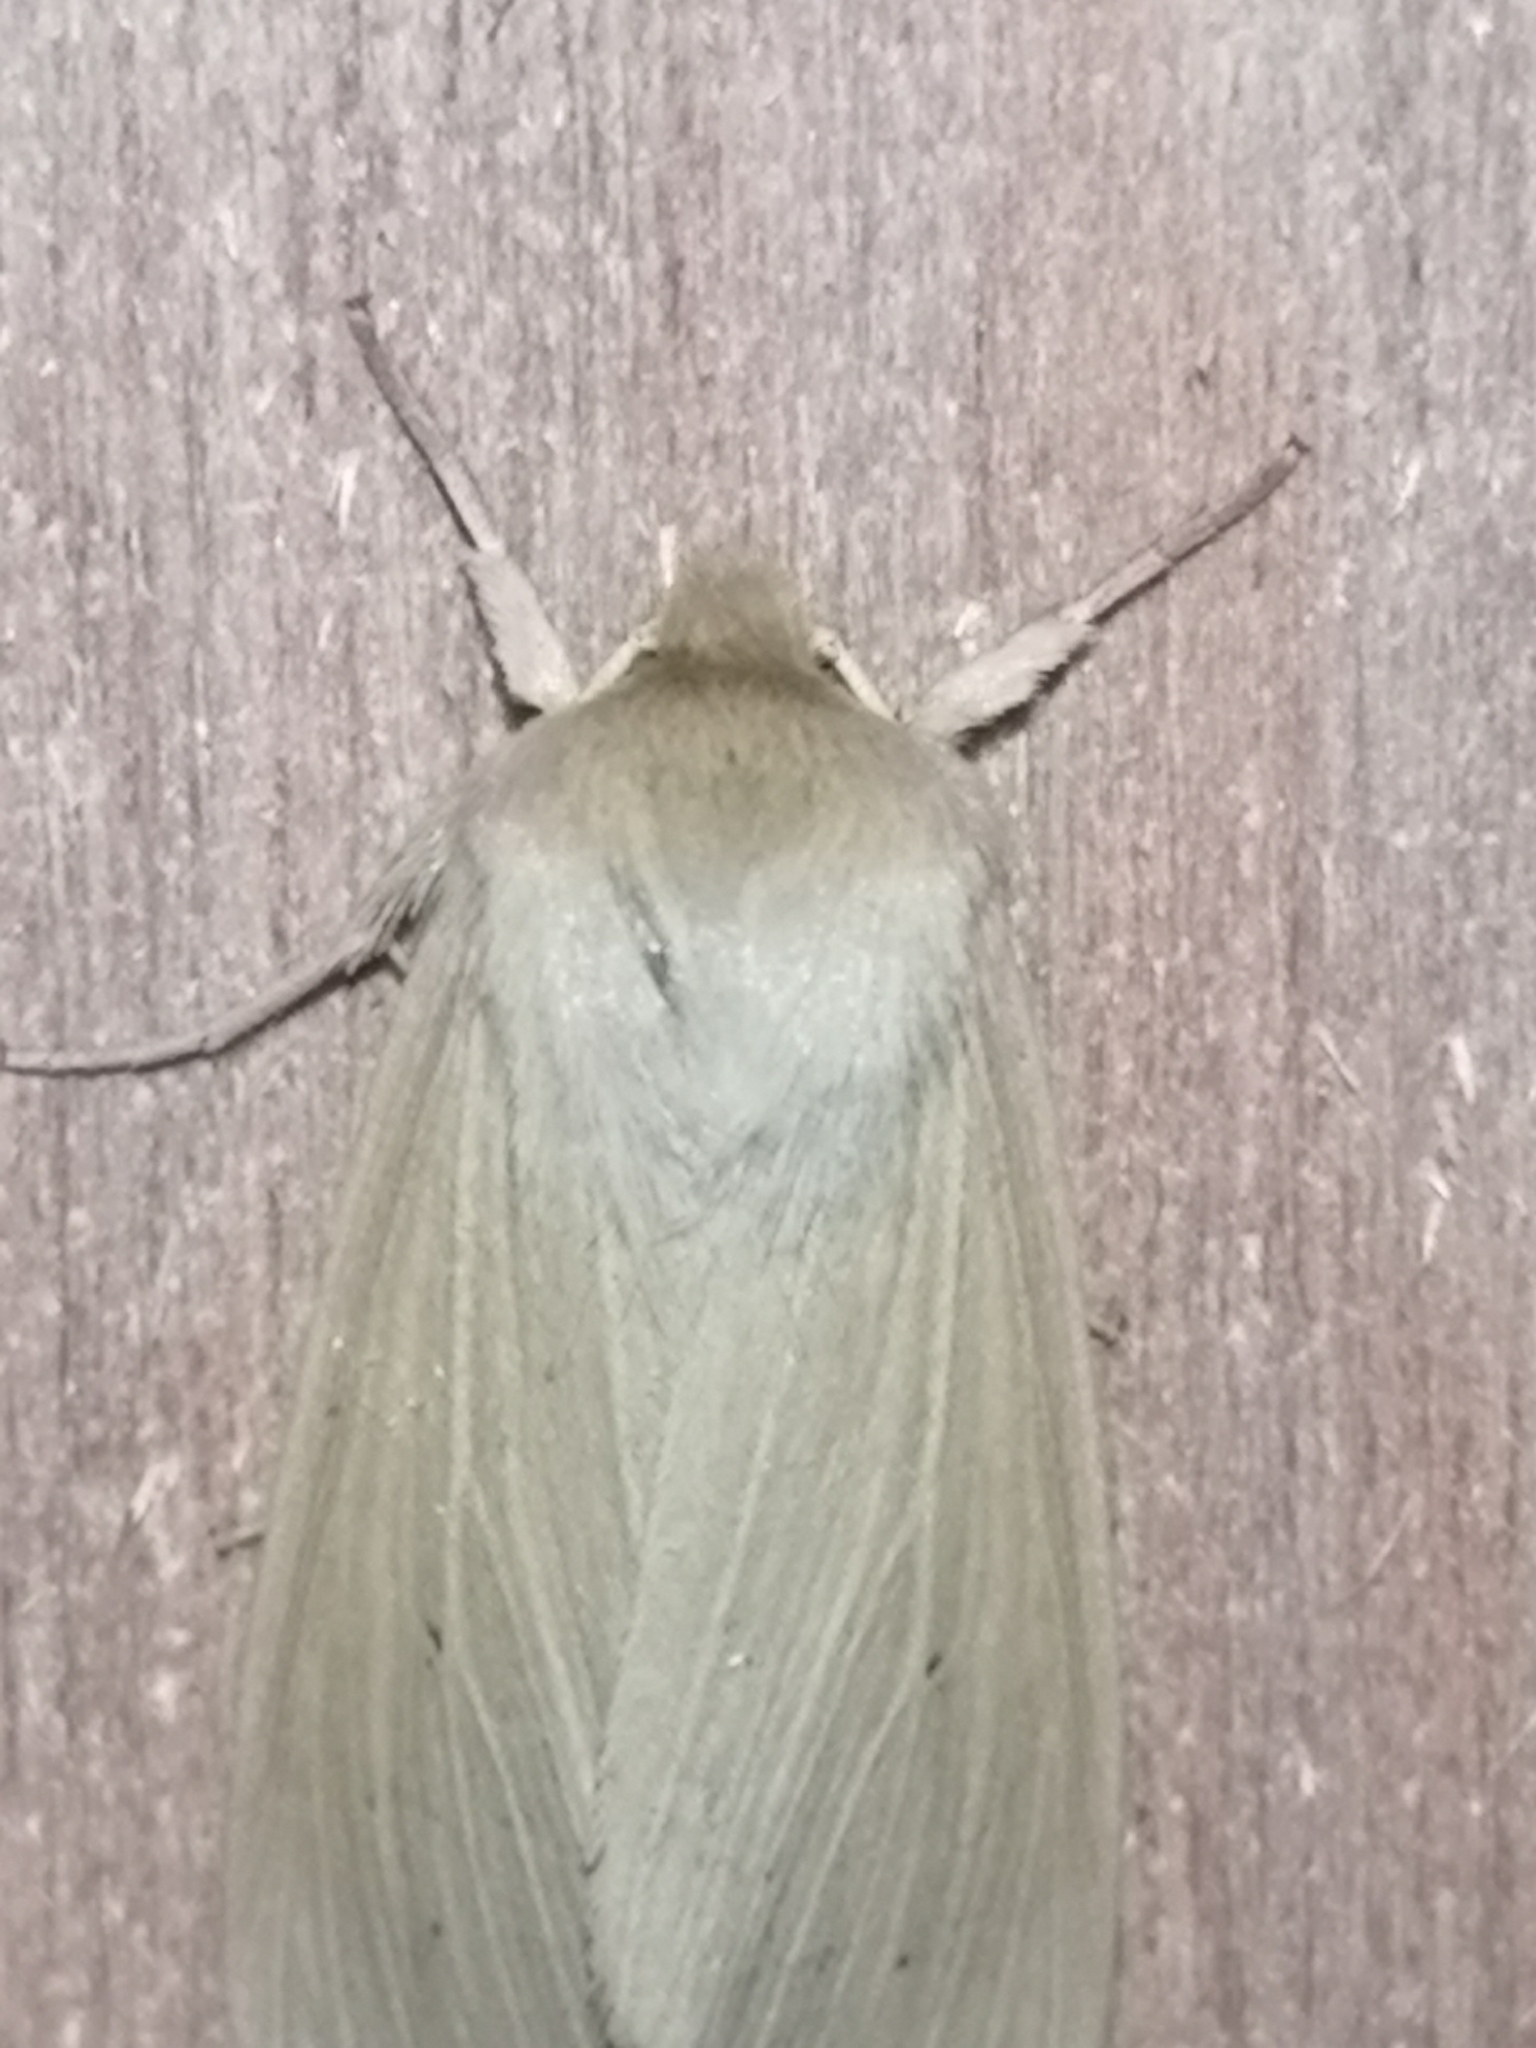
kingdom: Animalia
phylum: Arthropoda
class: Insecta
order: Lepidoptera
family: Noctuidae
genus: Mythimna
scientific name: Mythimna pallens
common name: Common wainscot
